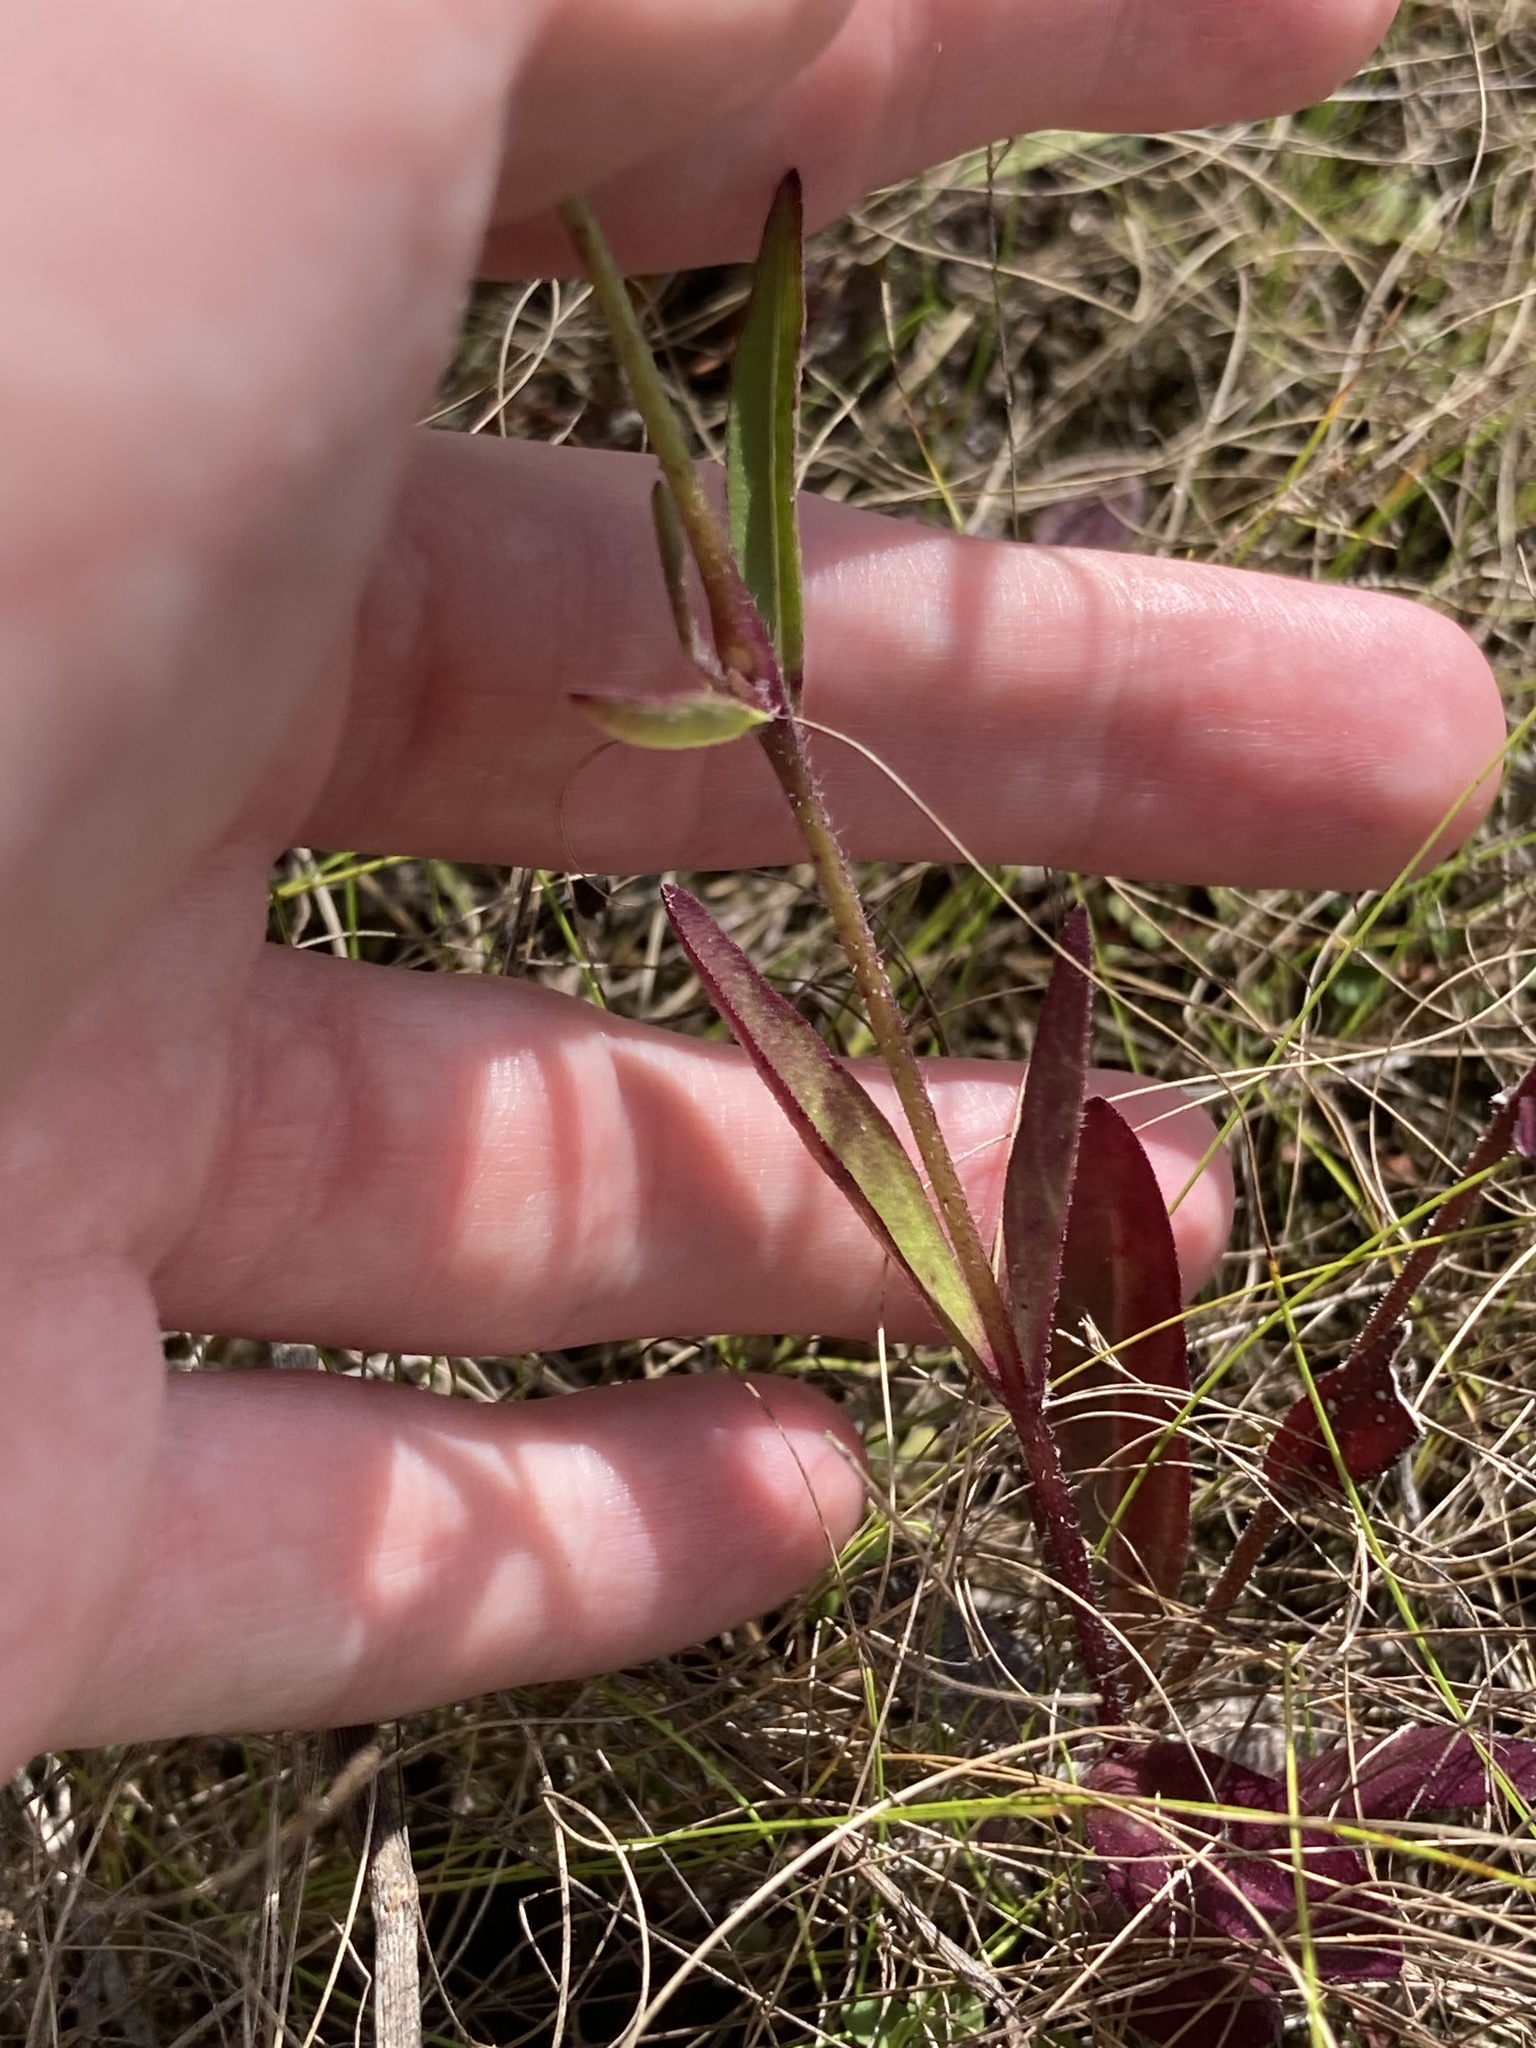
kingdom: Plantae
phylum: Tracheophyta
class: Magnoliopsida
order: Lamiales
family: Orobanchaceae
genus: Buchnera
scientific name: Buchnera floridana
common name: Florida bluehearts
